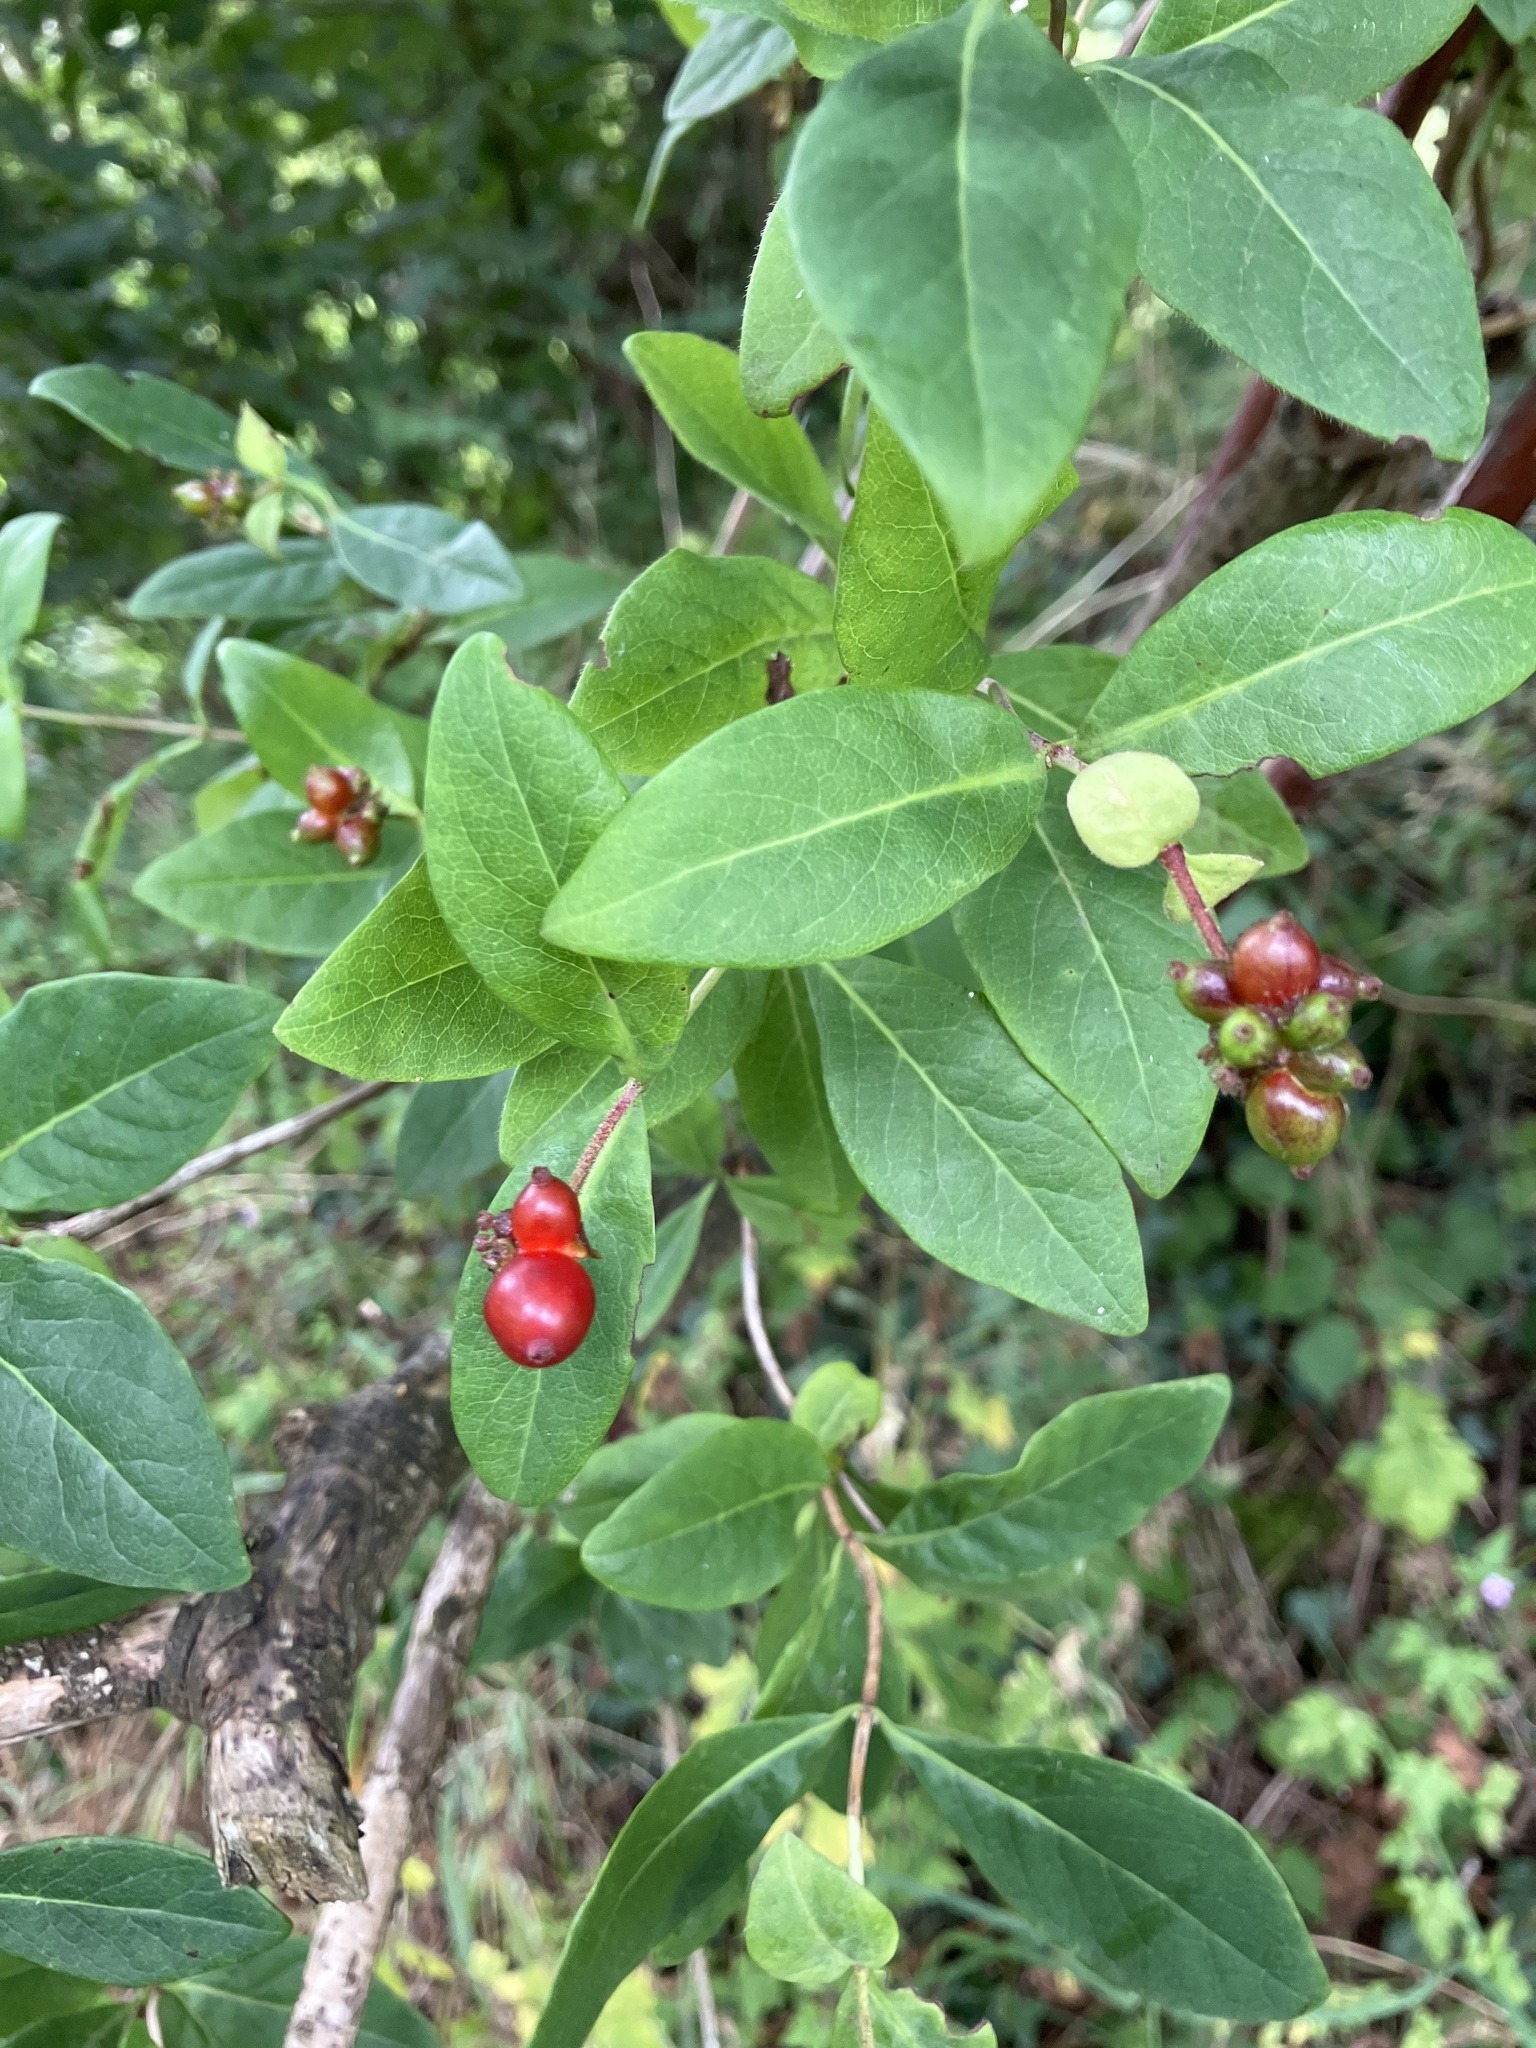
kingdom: Plantae
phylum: Tracheophyta
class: Magnoliopsida
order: Dipsacales
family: Caprifoliaceae
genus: Lonicera
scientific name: Lonicera periclymenum
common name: European honeysuckle
